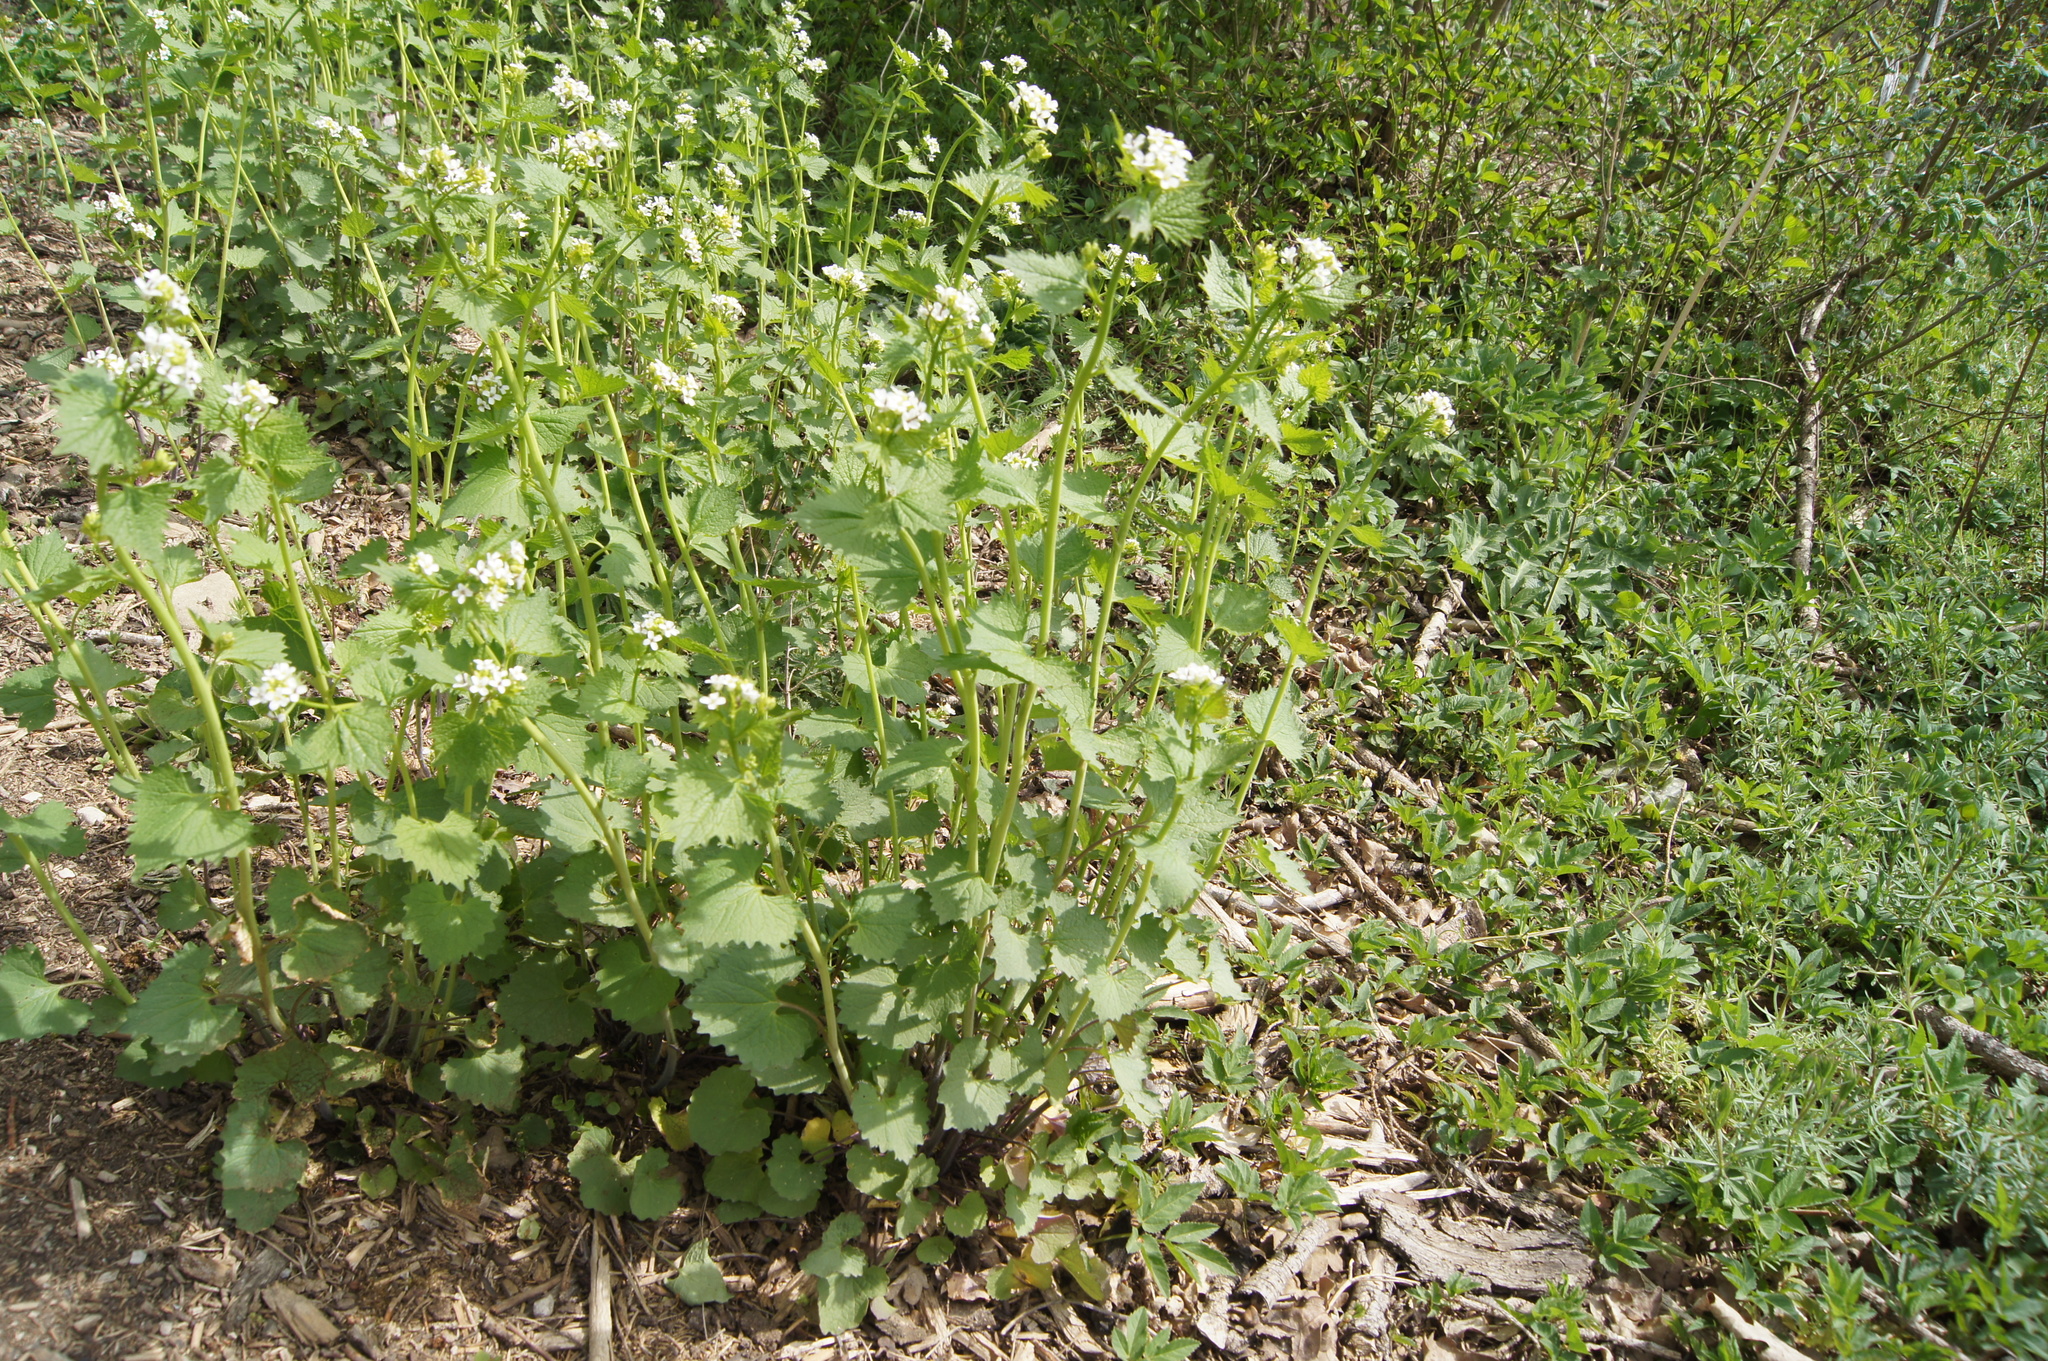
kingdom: Plantae
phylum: Tracheophyta
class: Magnoliopsida
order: Brassicales
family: Brassicaceae
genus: Alliaria
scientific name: Alliaria petiolata
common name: Garlic mustard
